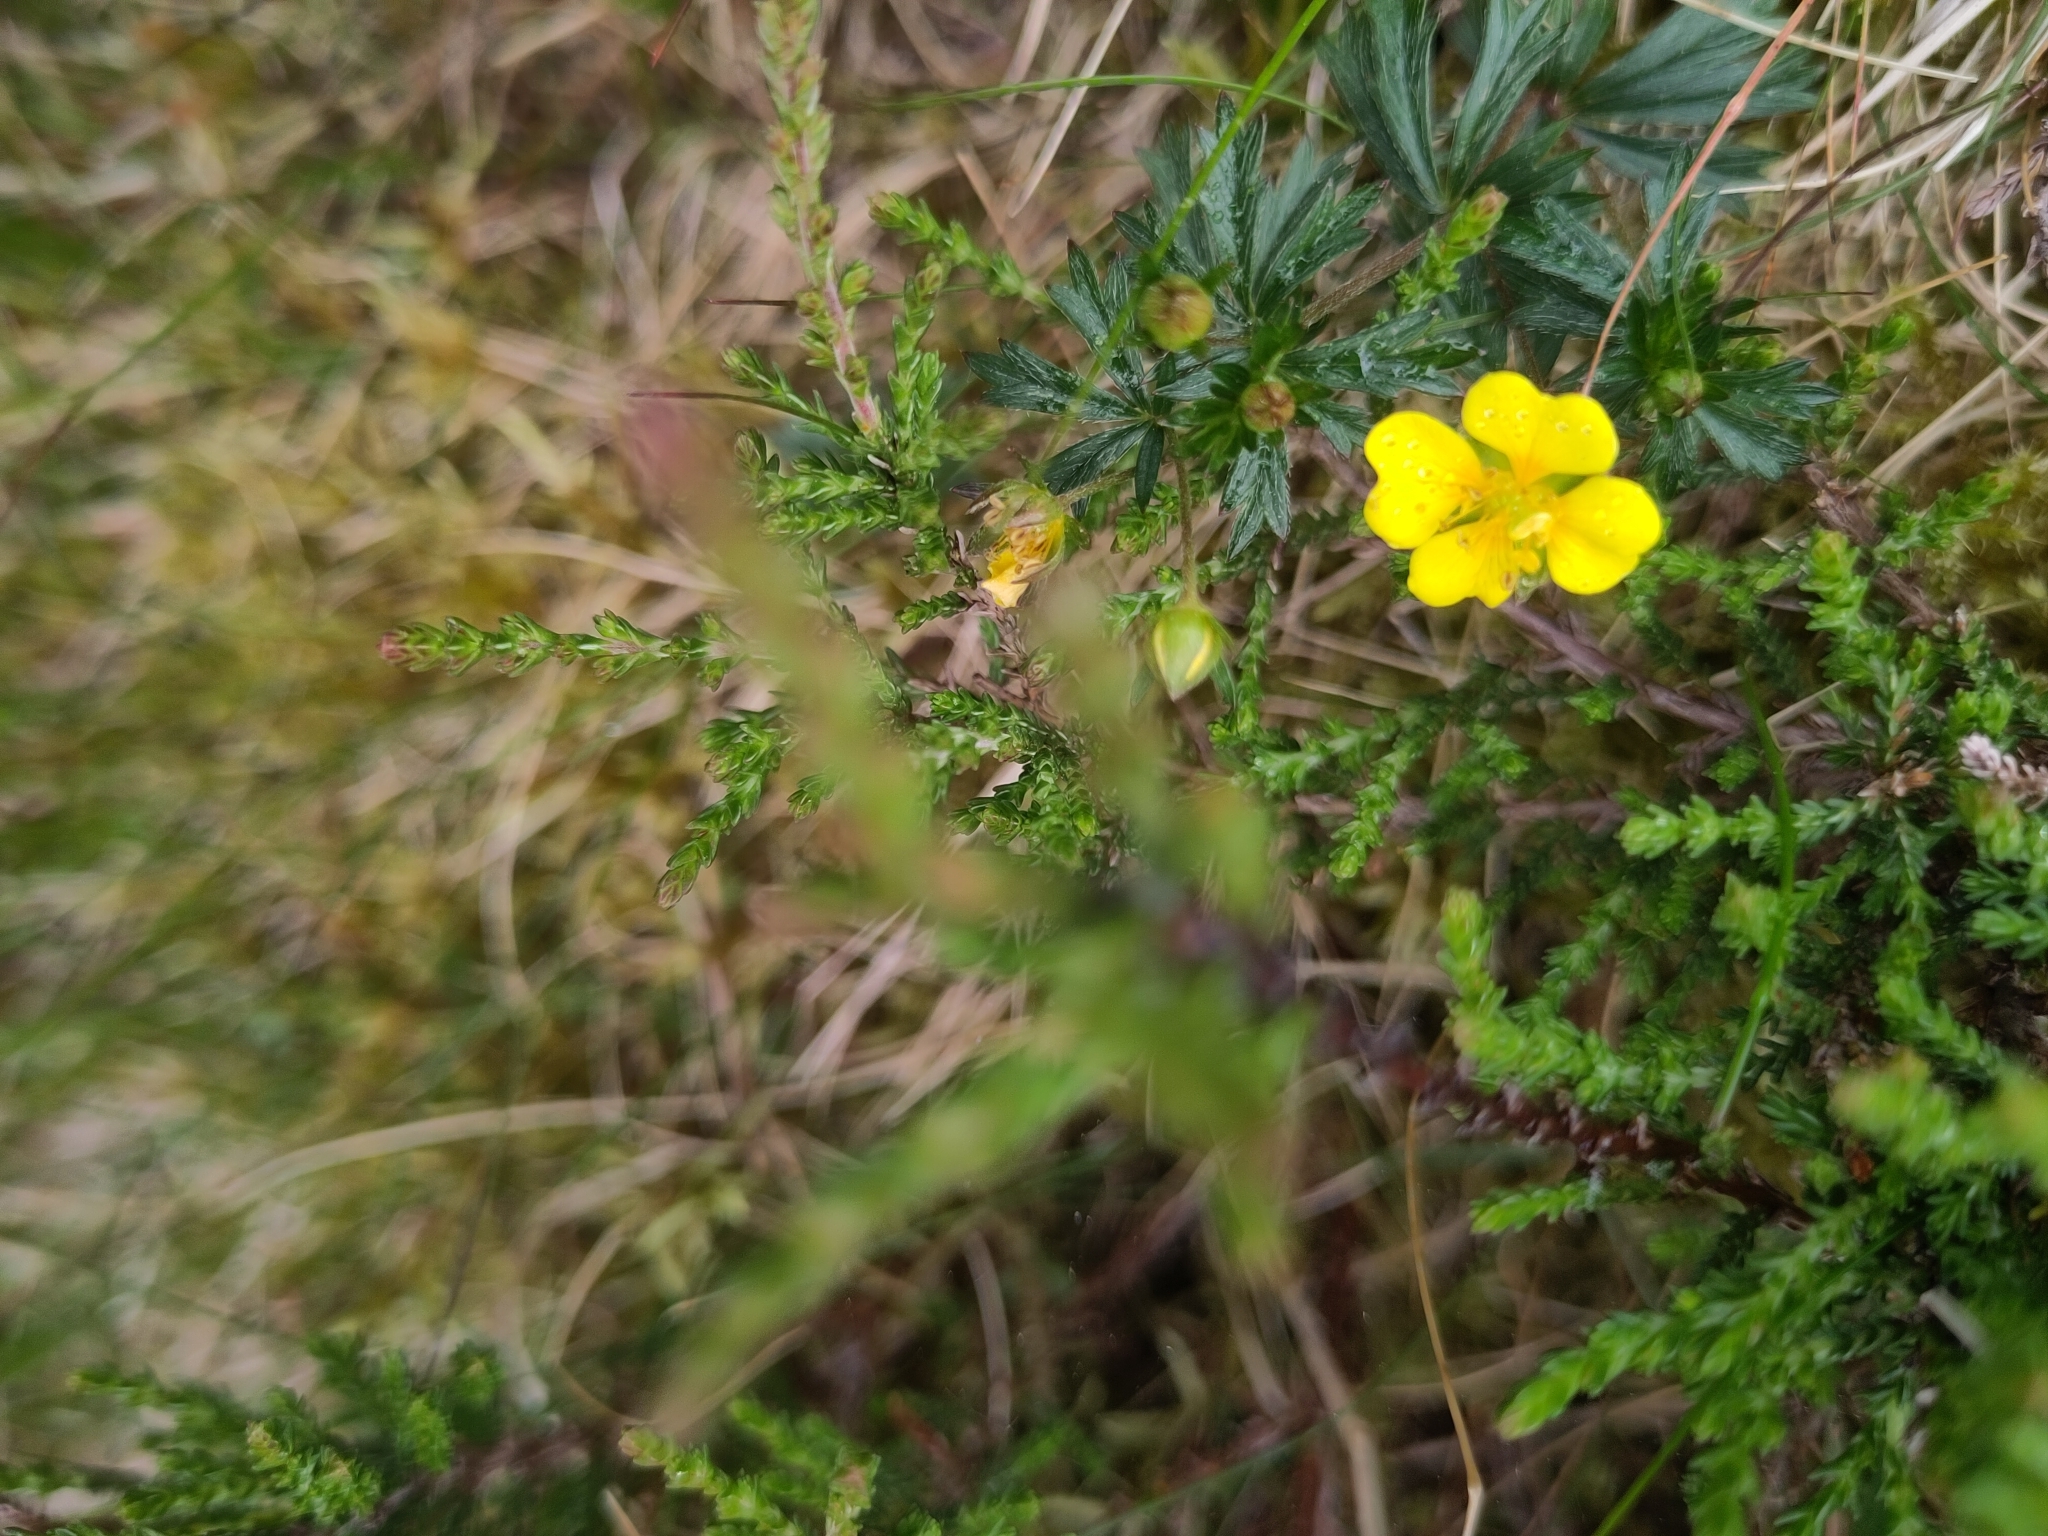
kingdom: Plantae
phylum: Tracheophyta
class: Magnoliopsida
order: Rosales
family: Rosaceae
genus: Potentilla
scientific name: Potentilla erecta
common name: Tormentil
